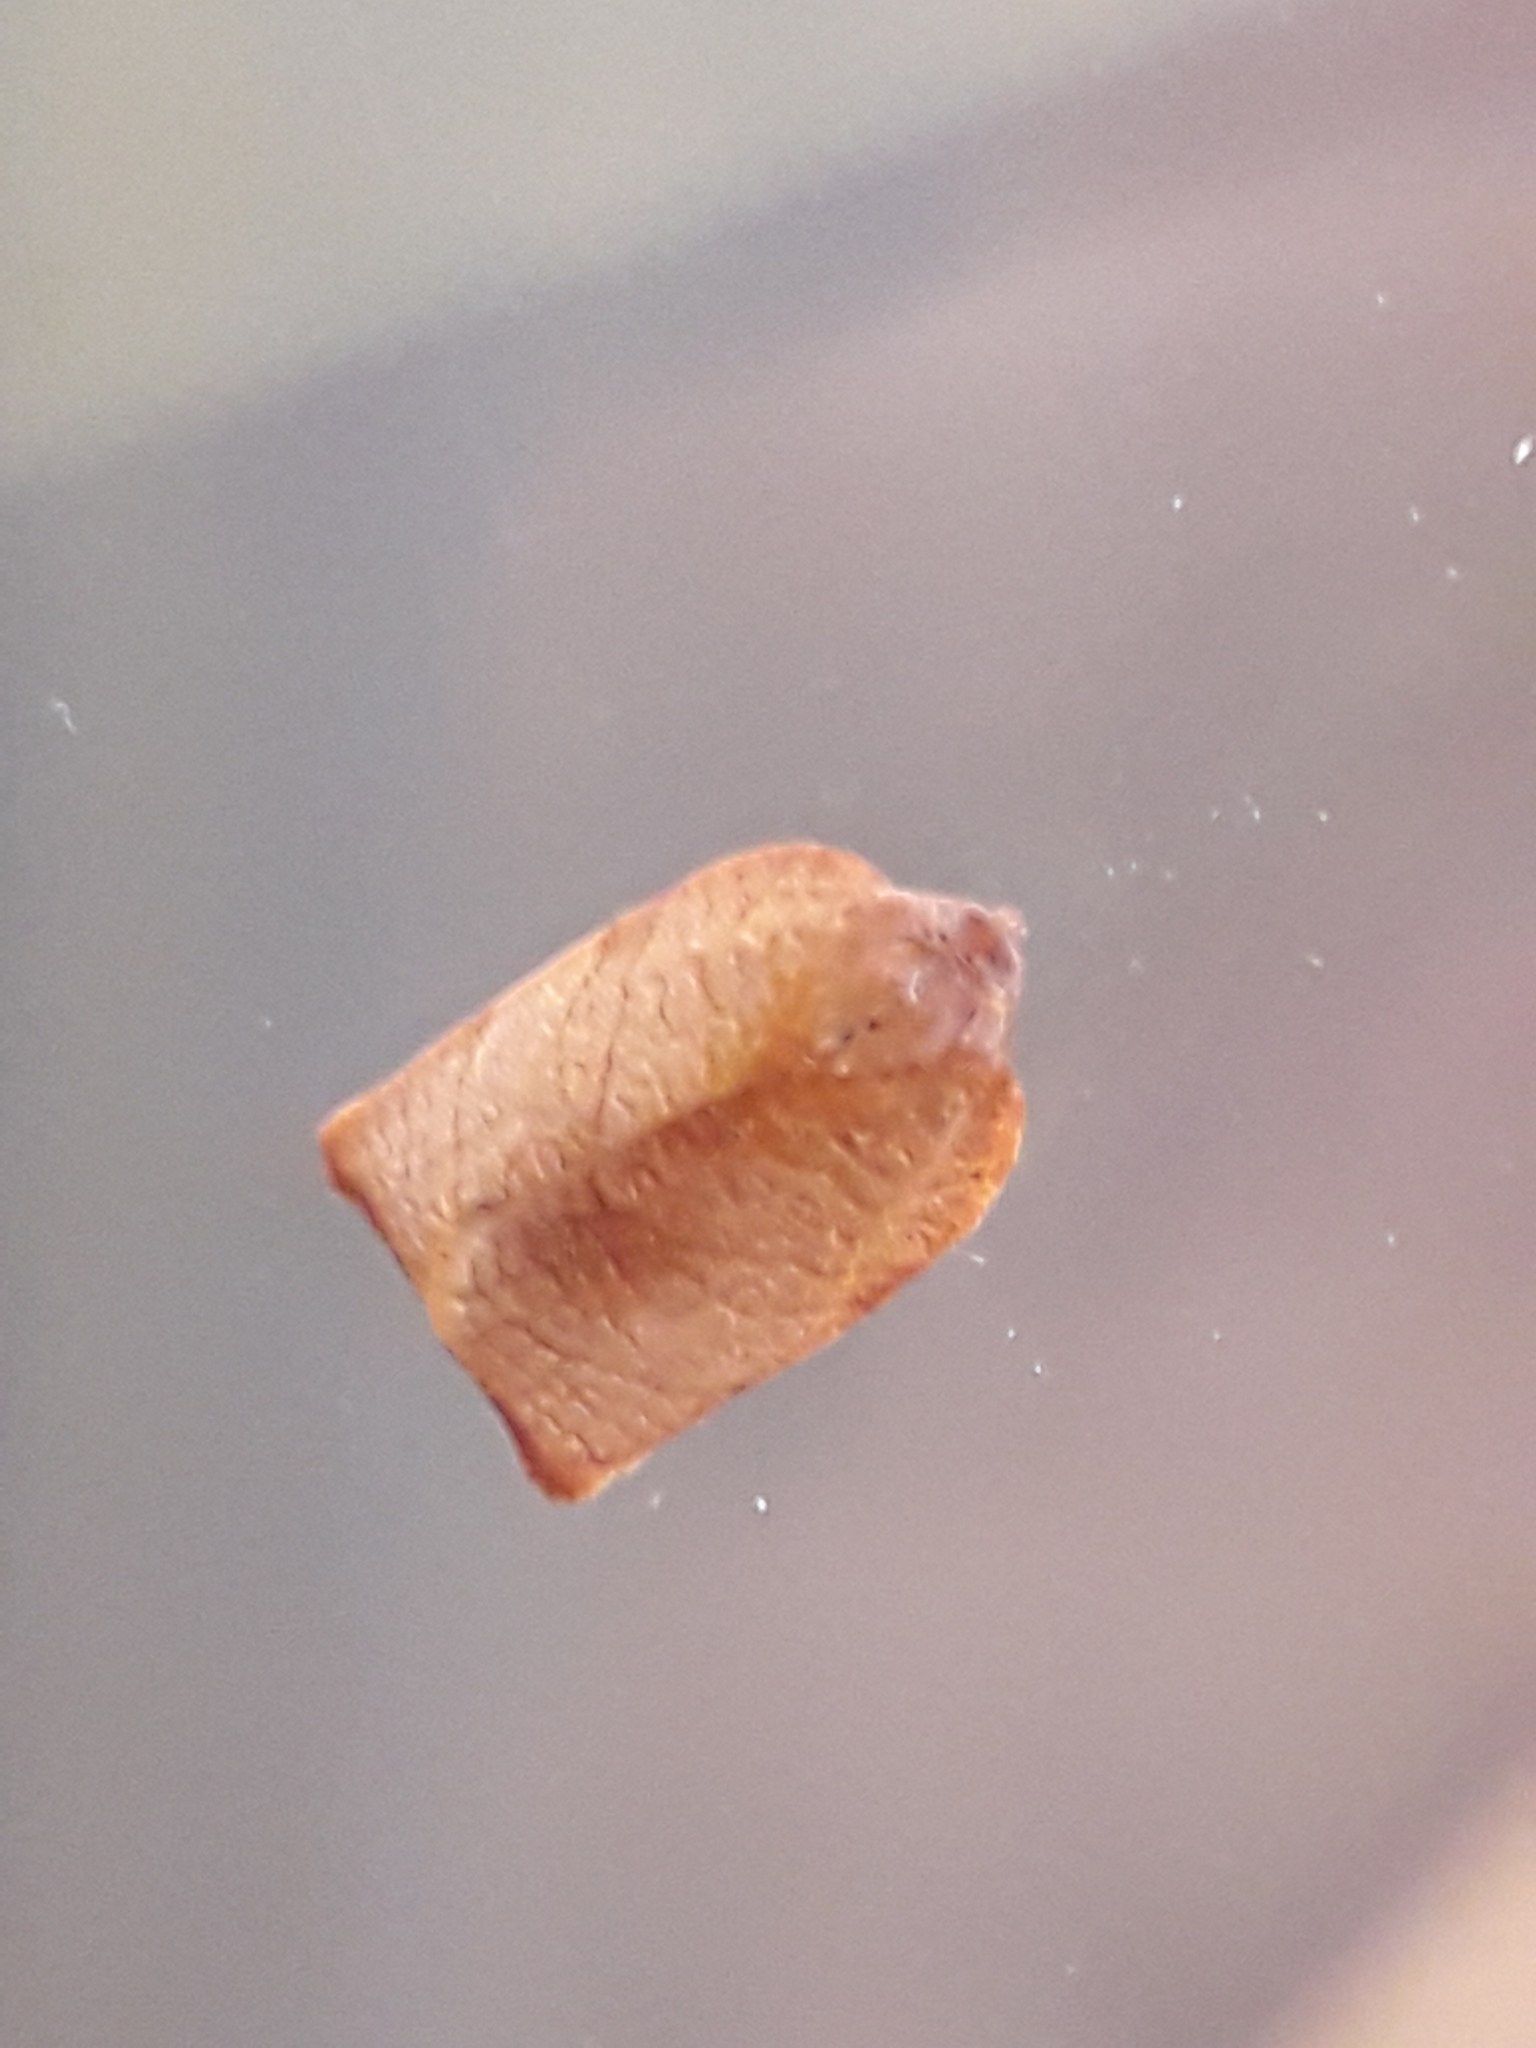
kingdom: Animalia
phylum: Arthropoda
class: Insecta
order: Lepidoptera
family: Tortricidae
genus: Cacoecimorpha
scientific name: Cacoecimorpha pronubana
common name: Carnation tortrix
